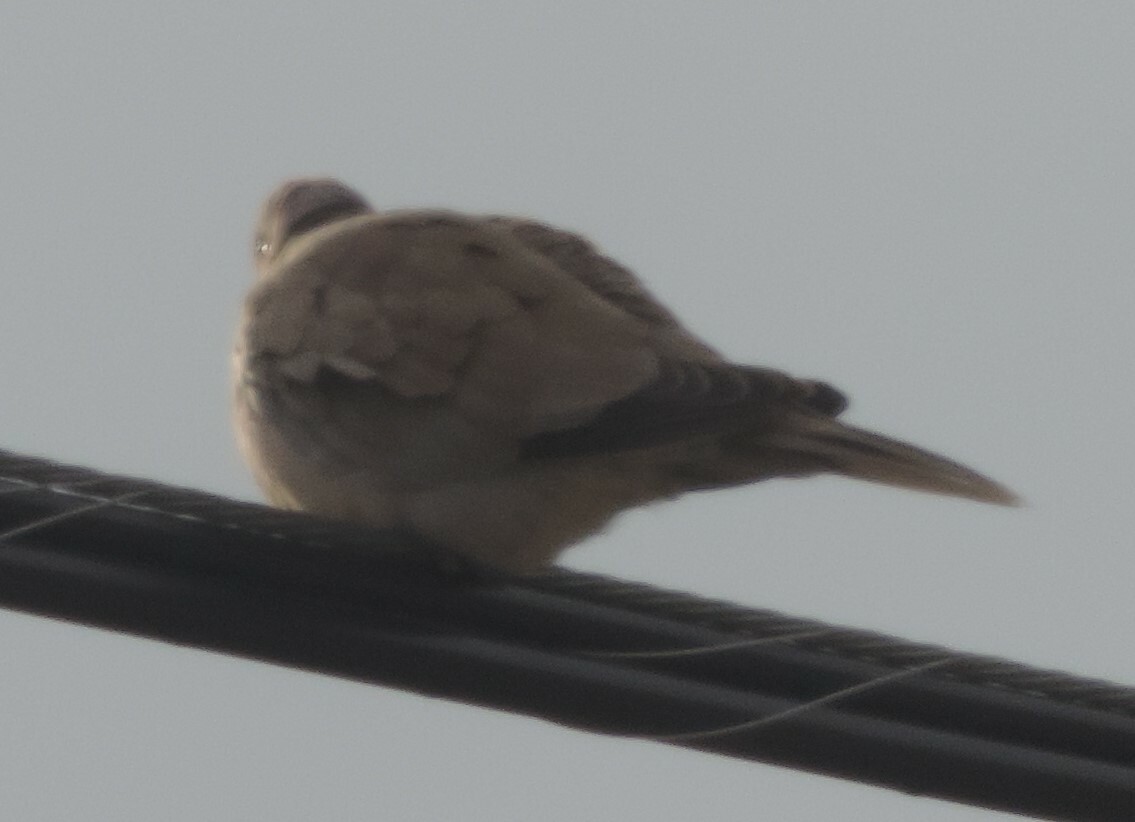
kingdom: Animalia
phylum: Chordata
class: Aves
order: Columbiformes
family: Columbidae
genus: Streptopelia
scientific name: Streptopelia decaocto
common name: Eurasian collared dove
